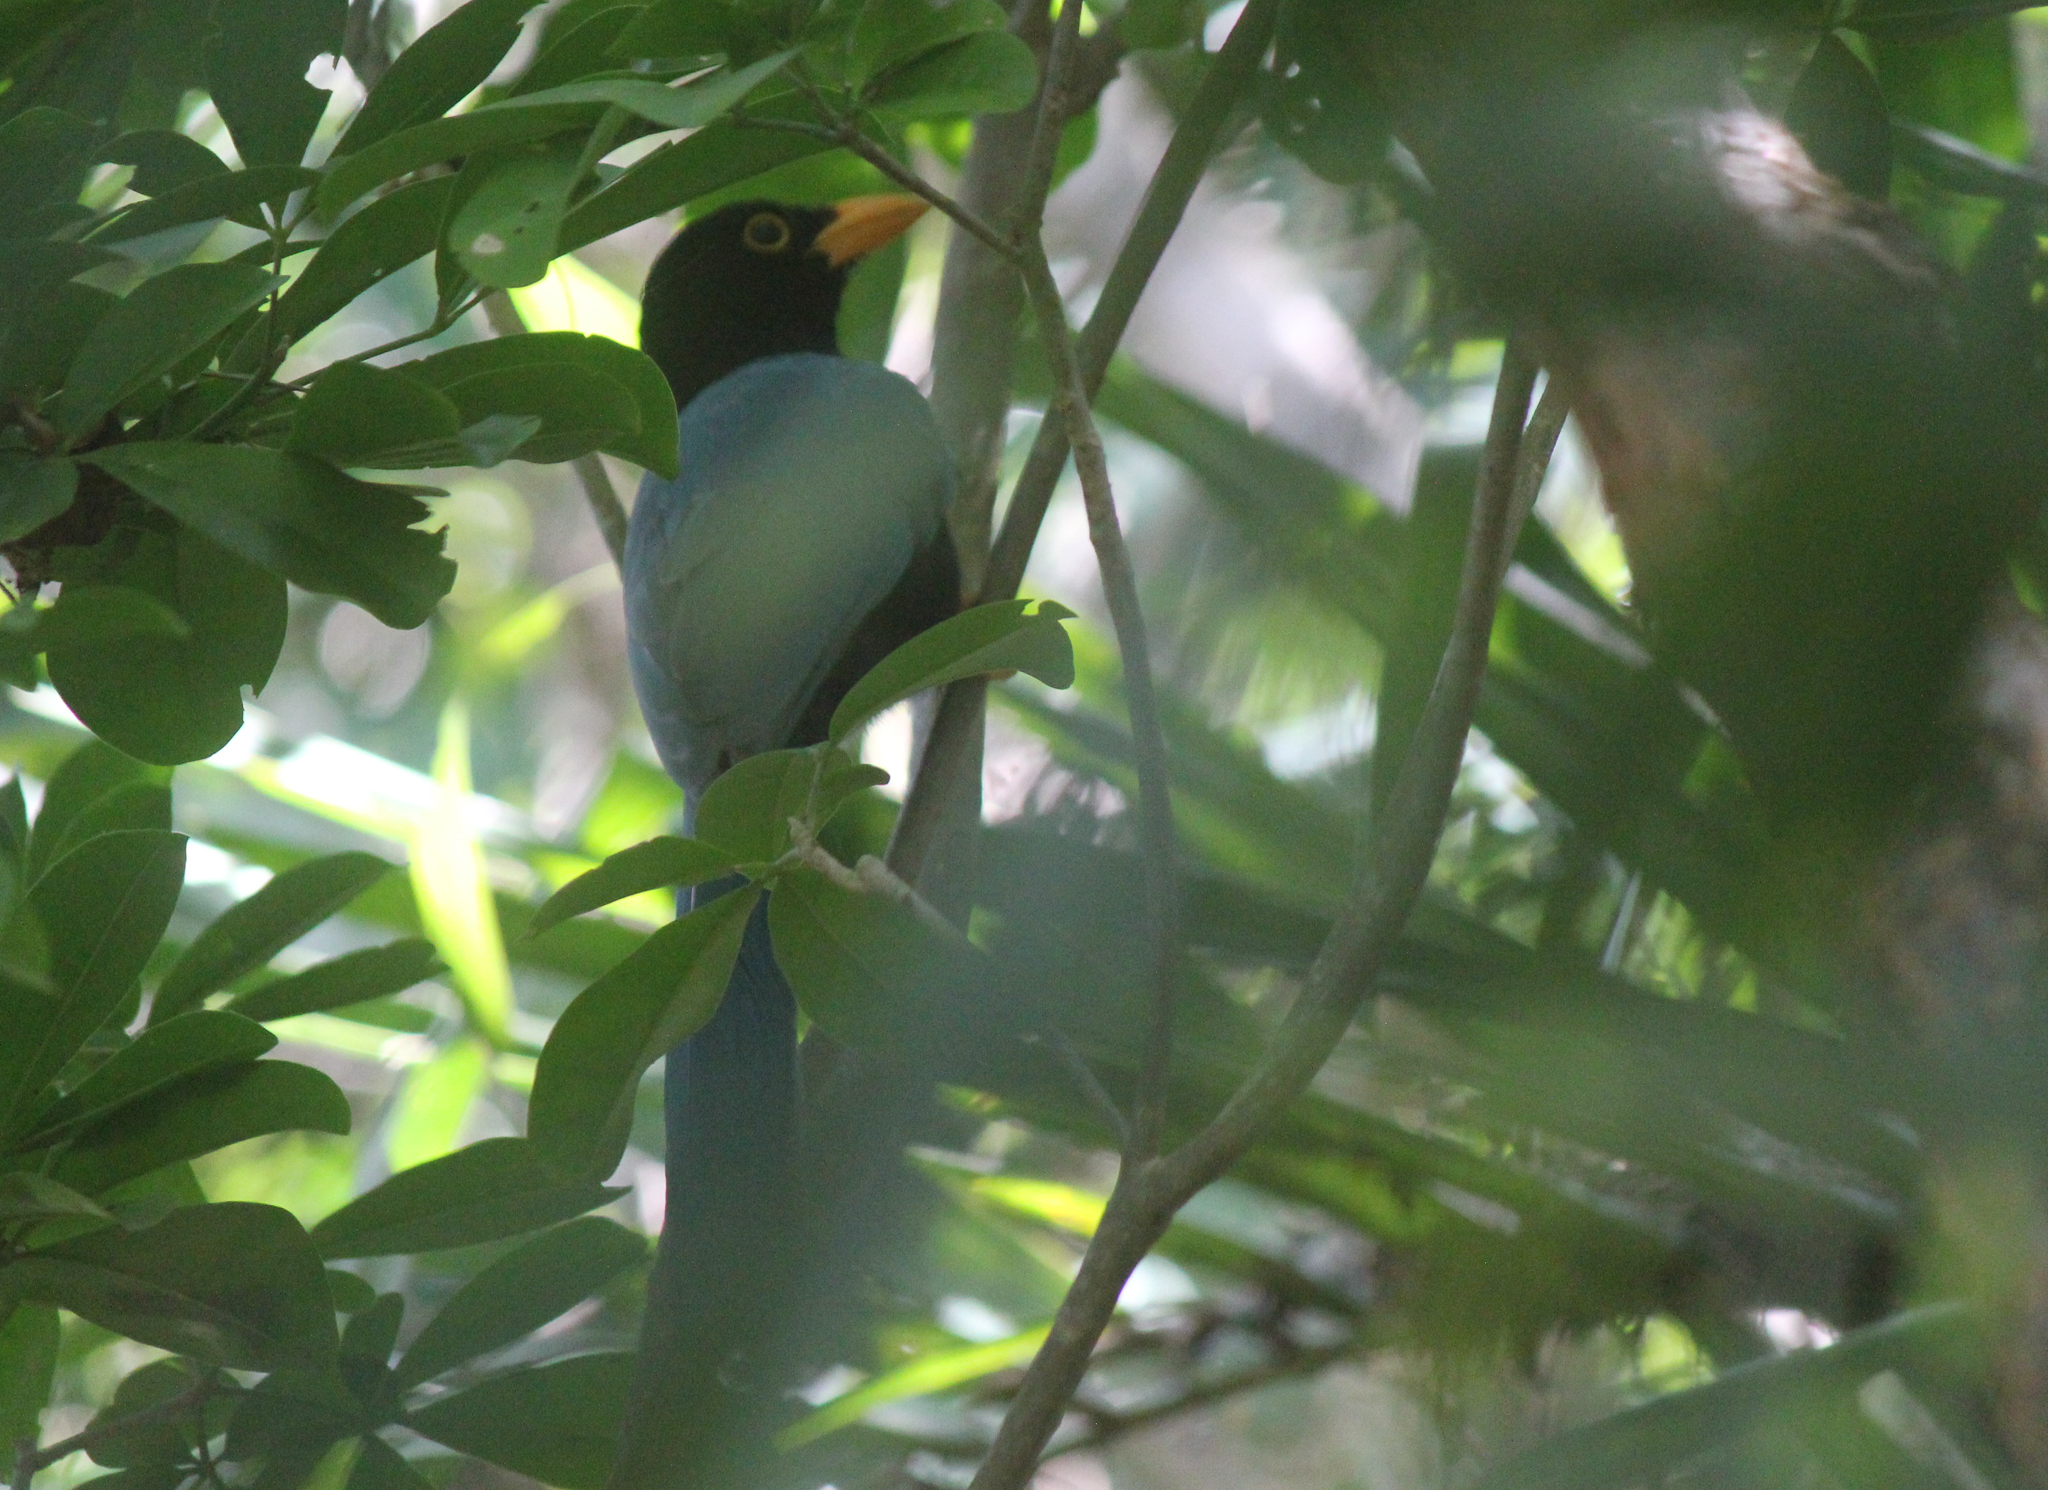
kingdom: Animalia
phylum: Chordata
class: Aves
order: Passeriformes
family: Corvidae
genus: Cyanocorax
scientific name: Cyanocorax yucatanicus
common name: Yucatan jay
